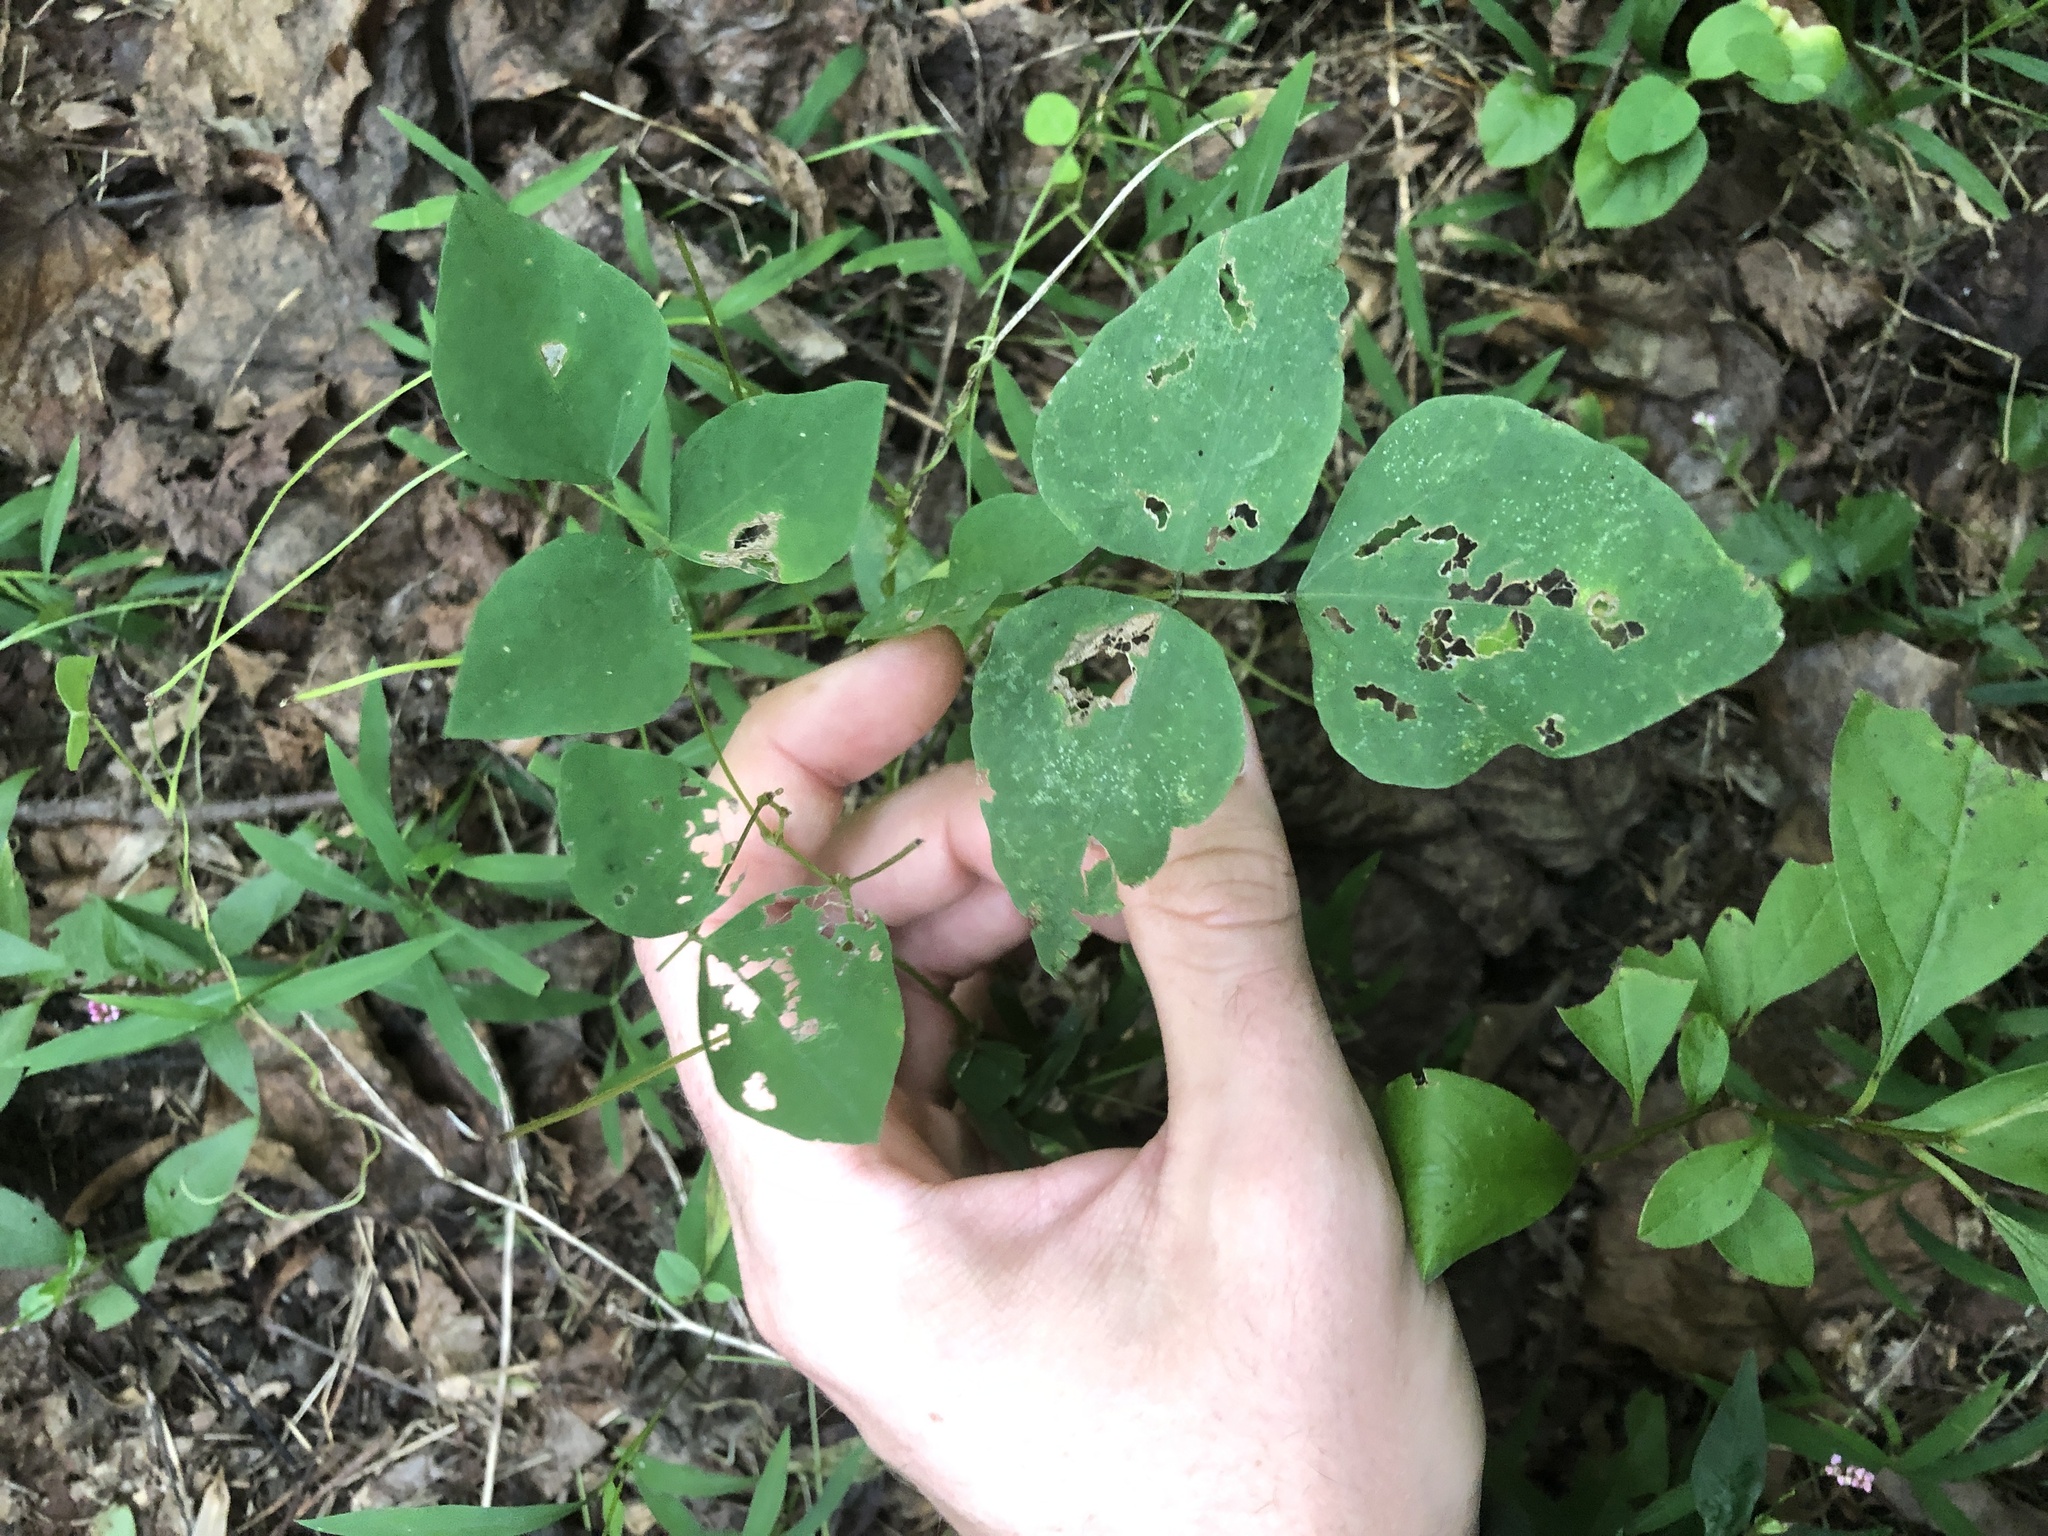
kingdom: Plantae
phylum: Tracheophyta
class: Magnoliopsida
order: Fabales
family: Fabaceae
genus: Amphicarpaea
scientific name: Amphicarpaea bracteata
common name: American hog peanut
